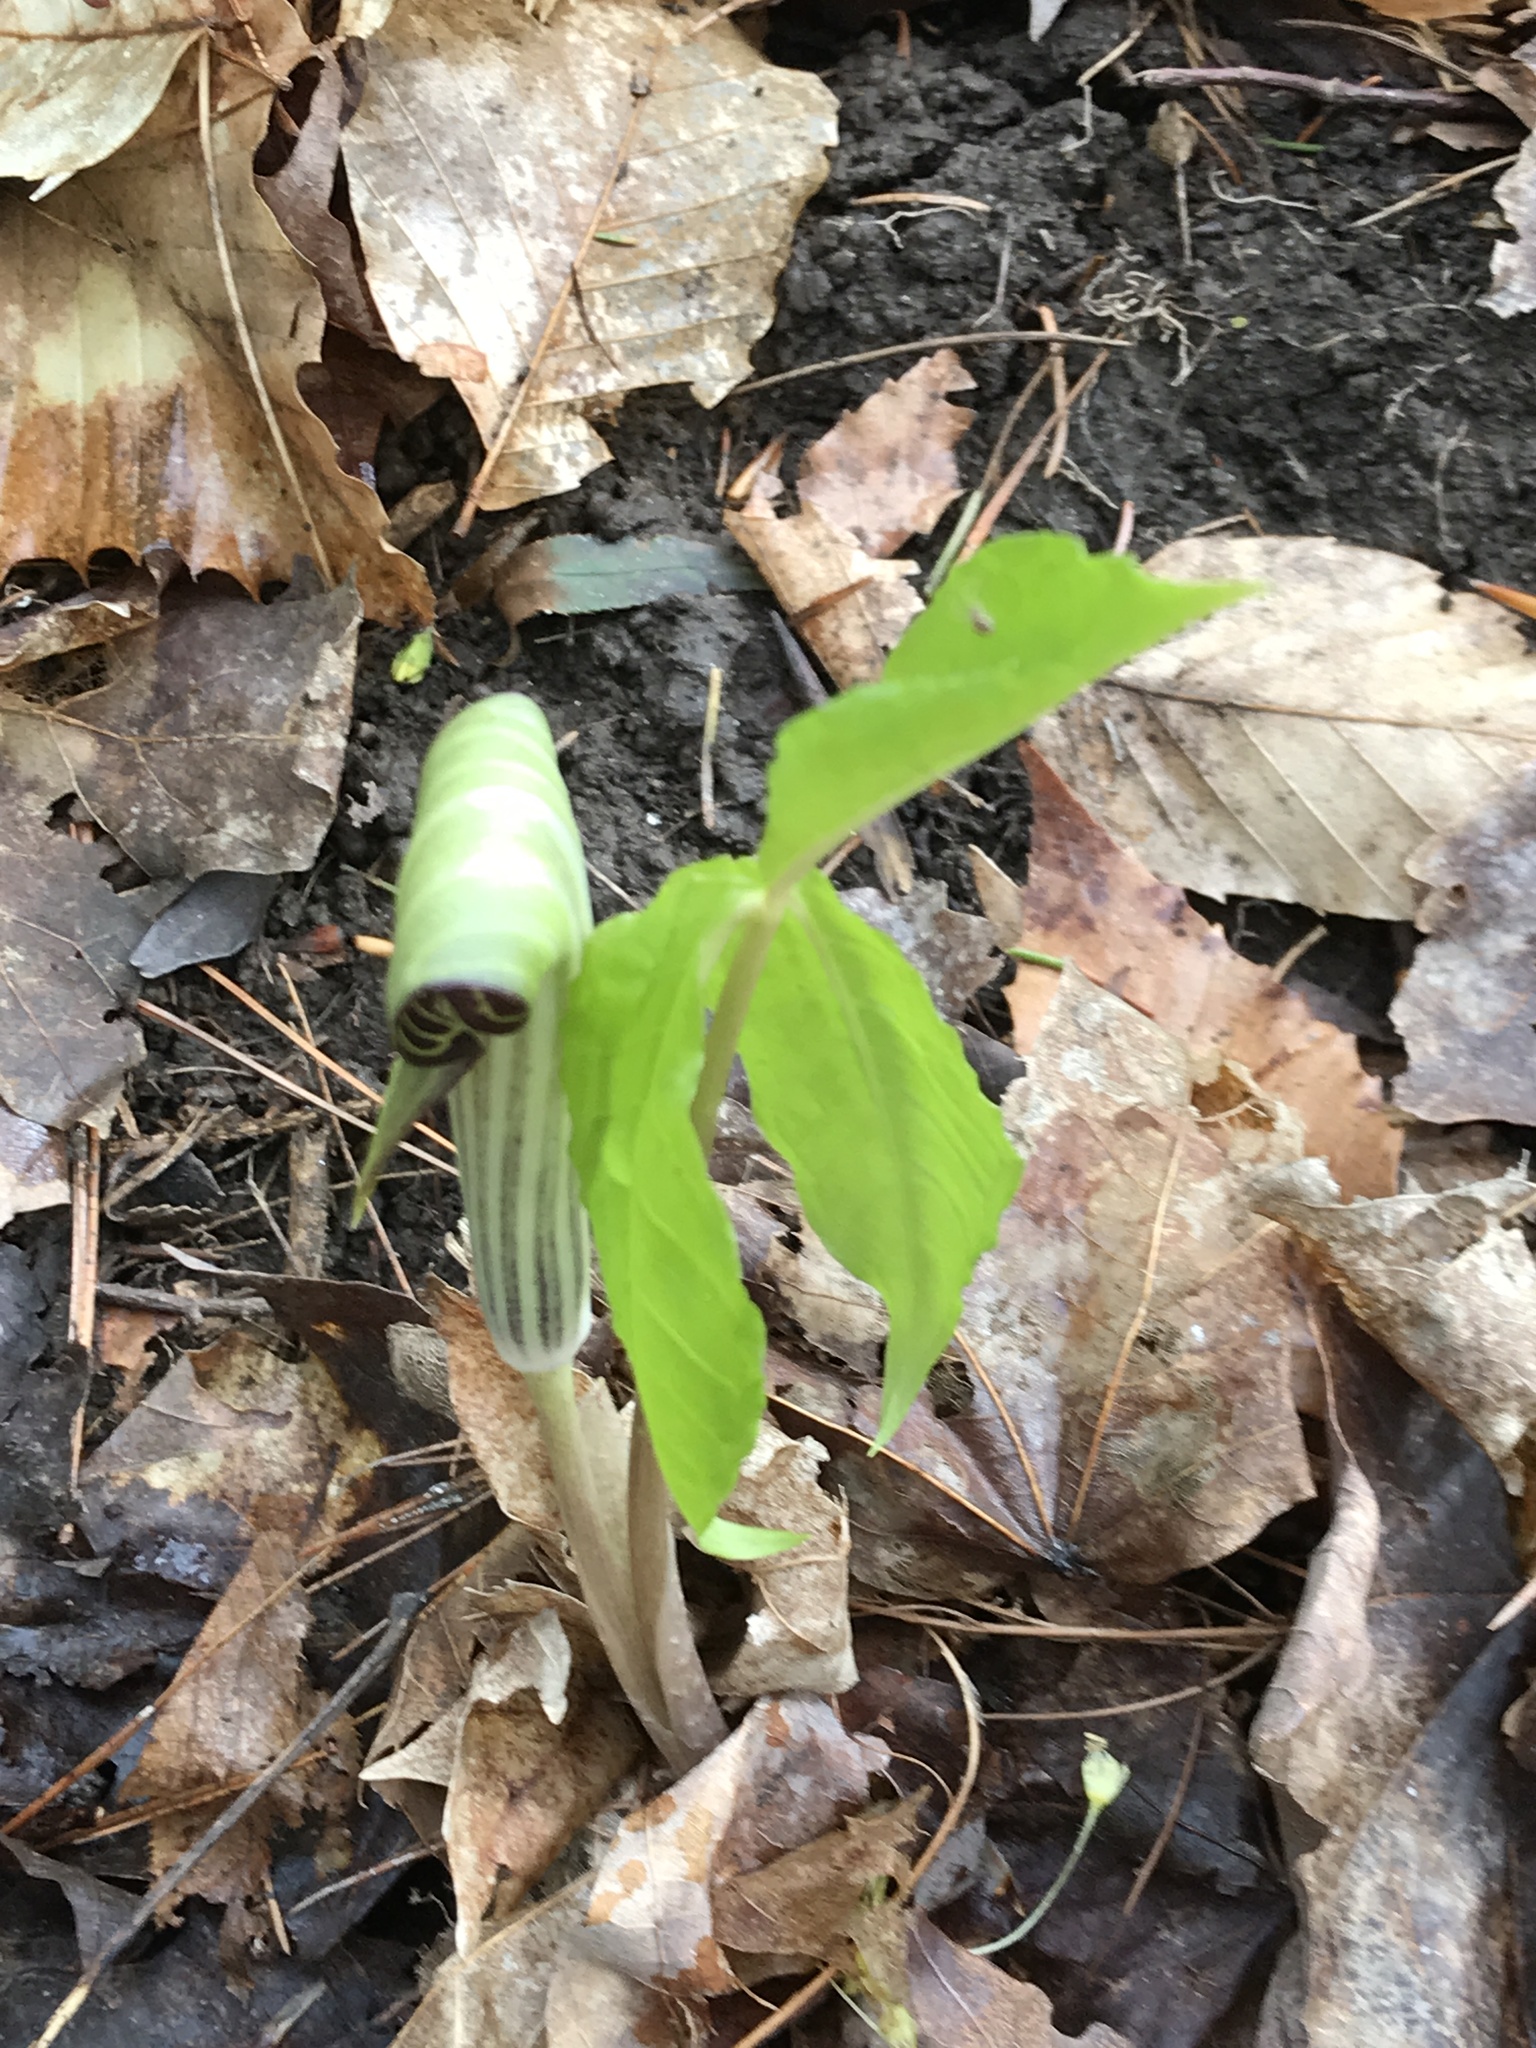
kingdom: Plantae
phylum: Tracheophyta
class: Liliopsida
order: Alismatales
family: Araceae
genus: Arisaema
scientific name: Arisaema triphyllum
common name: Jack-in-the-pulpit
